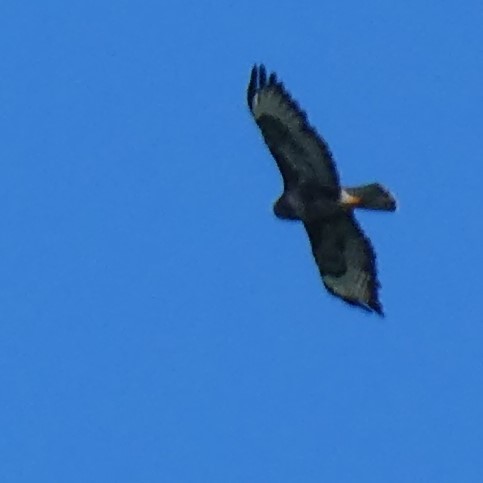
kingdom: Animalia
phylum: Chordata
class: Aves
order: Accipitriformes
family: Accipitridae
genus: Buteo
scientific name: Buteo buteo
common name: Common buzzard
